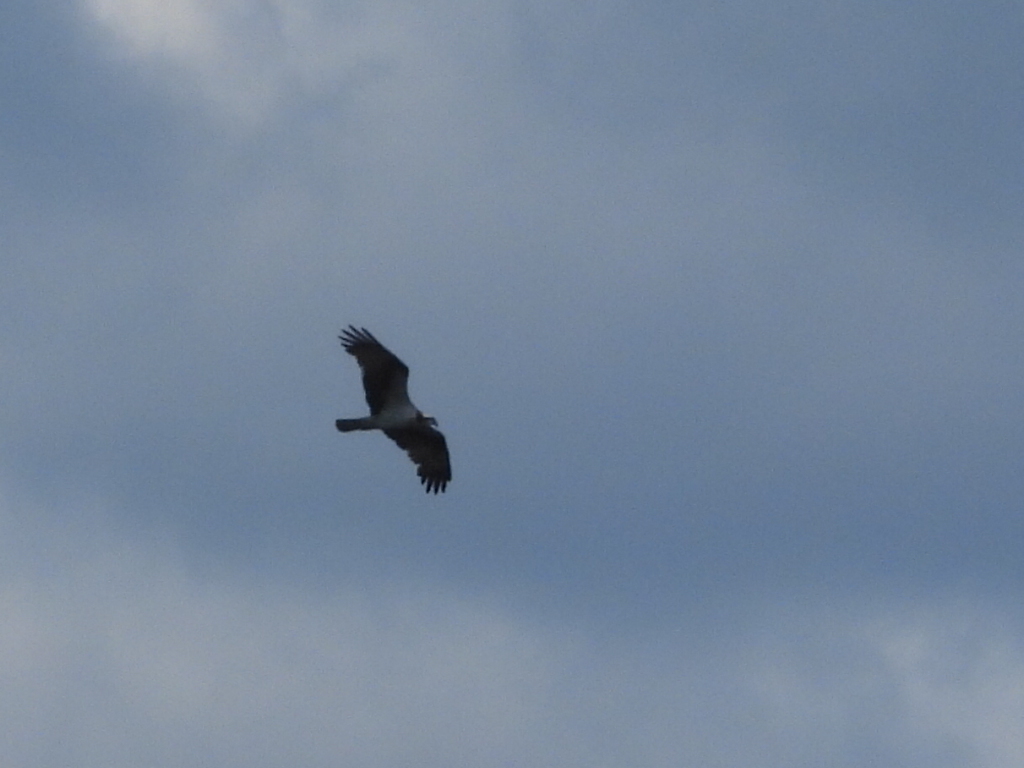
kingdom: Animalia
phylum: Chordata
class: Aves
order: Accipitriformes
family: Pandionidae
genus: Pandion
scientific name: Pandion haliaetus
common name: Osprey
